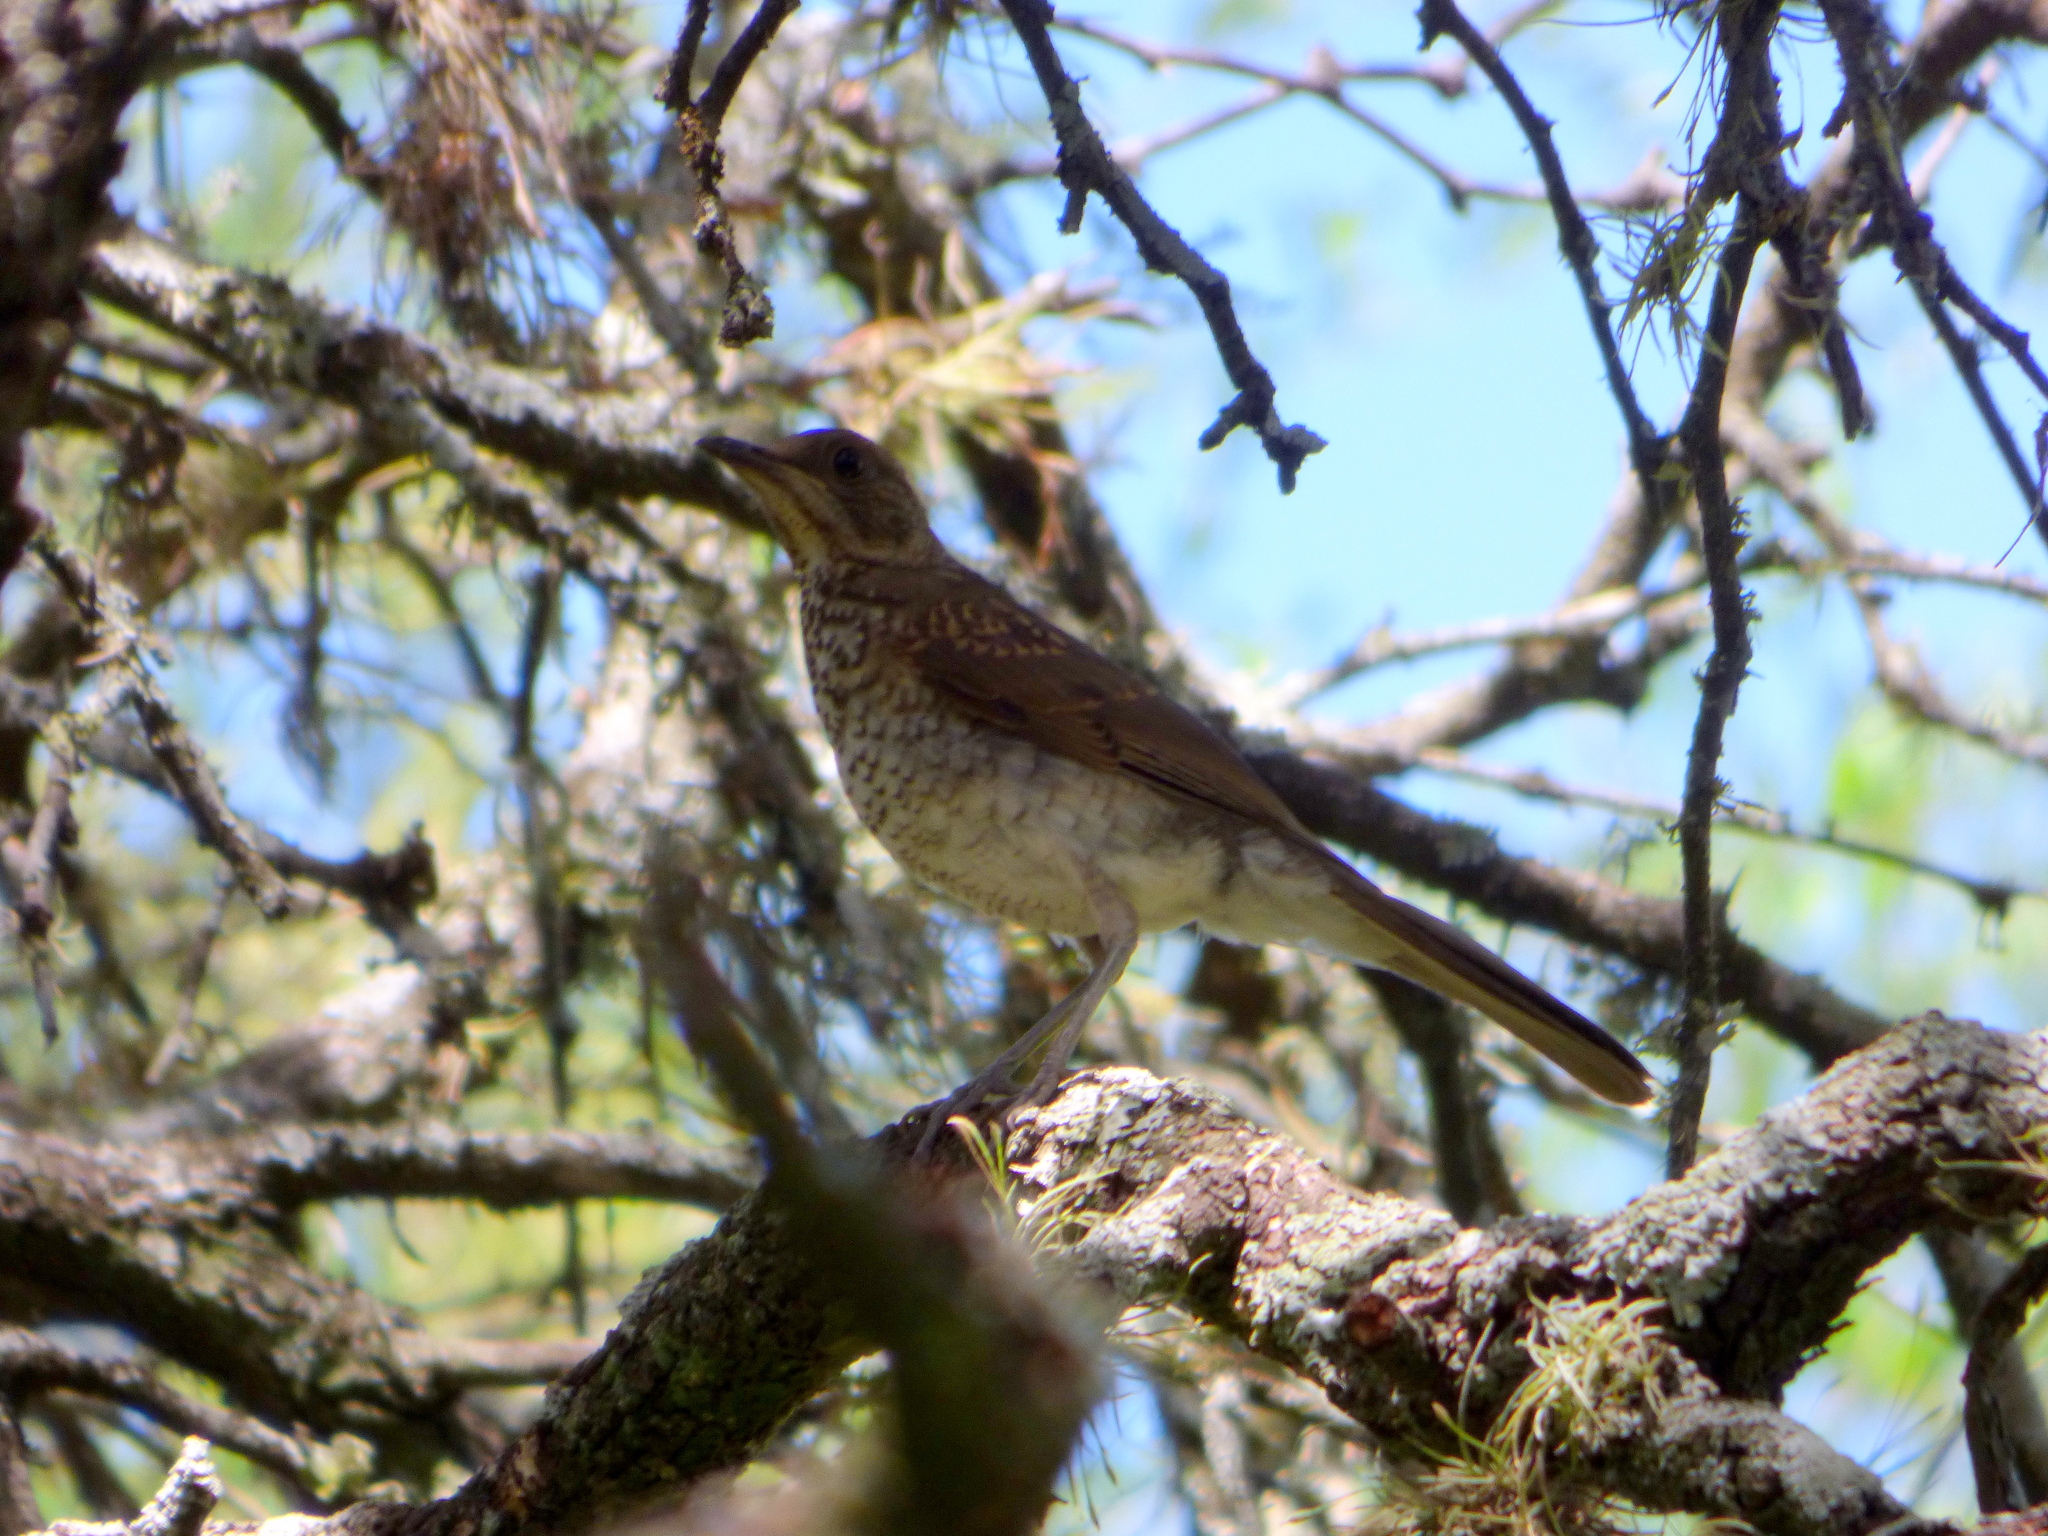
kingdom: Animalia
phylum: Chordata
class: Aves
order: Passeriformes
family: Turdidae
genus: Turdus
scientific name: Turdus amaurochalinus
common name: Creamy-bellied thrush
